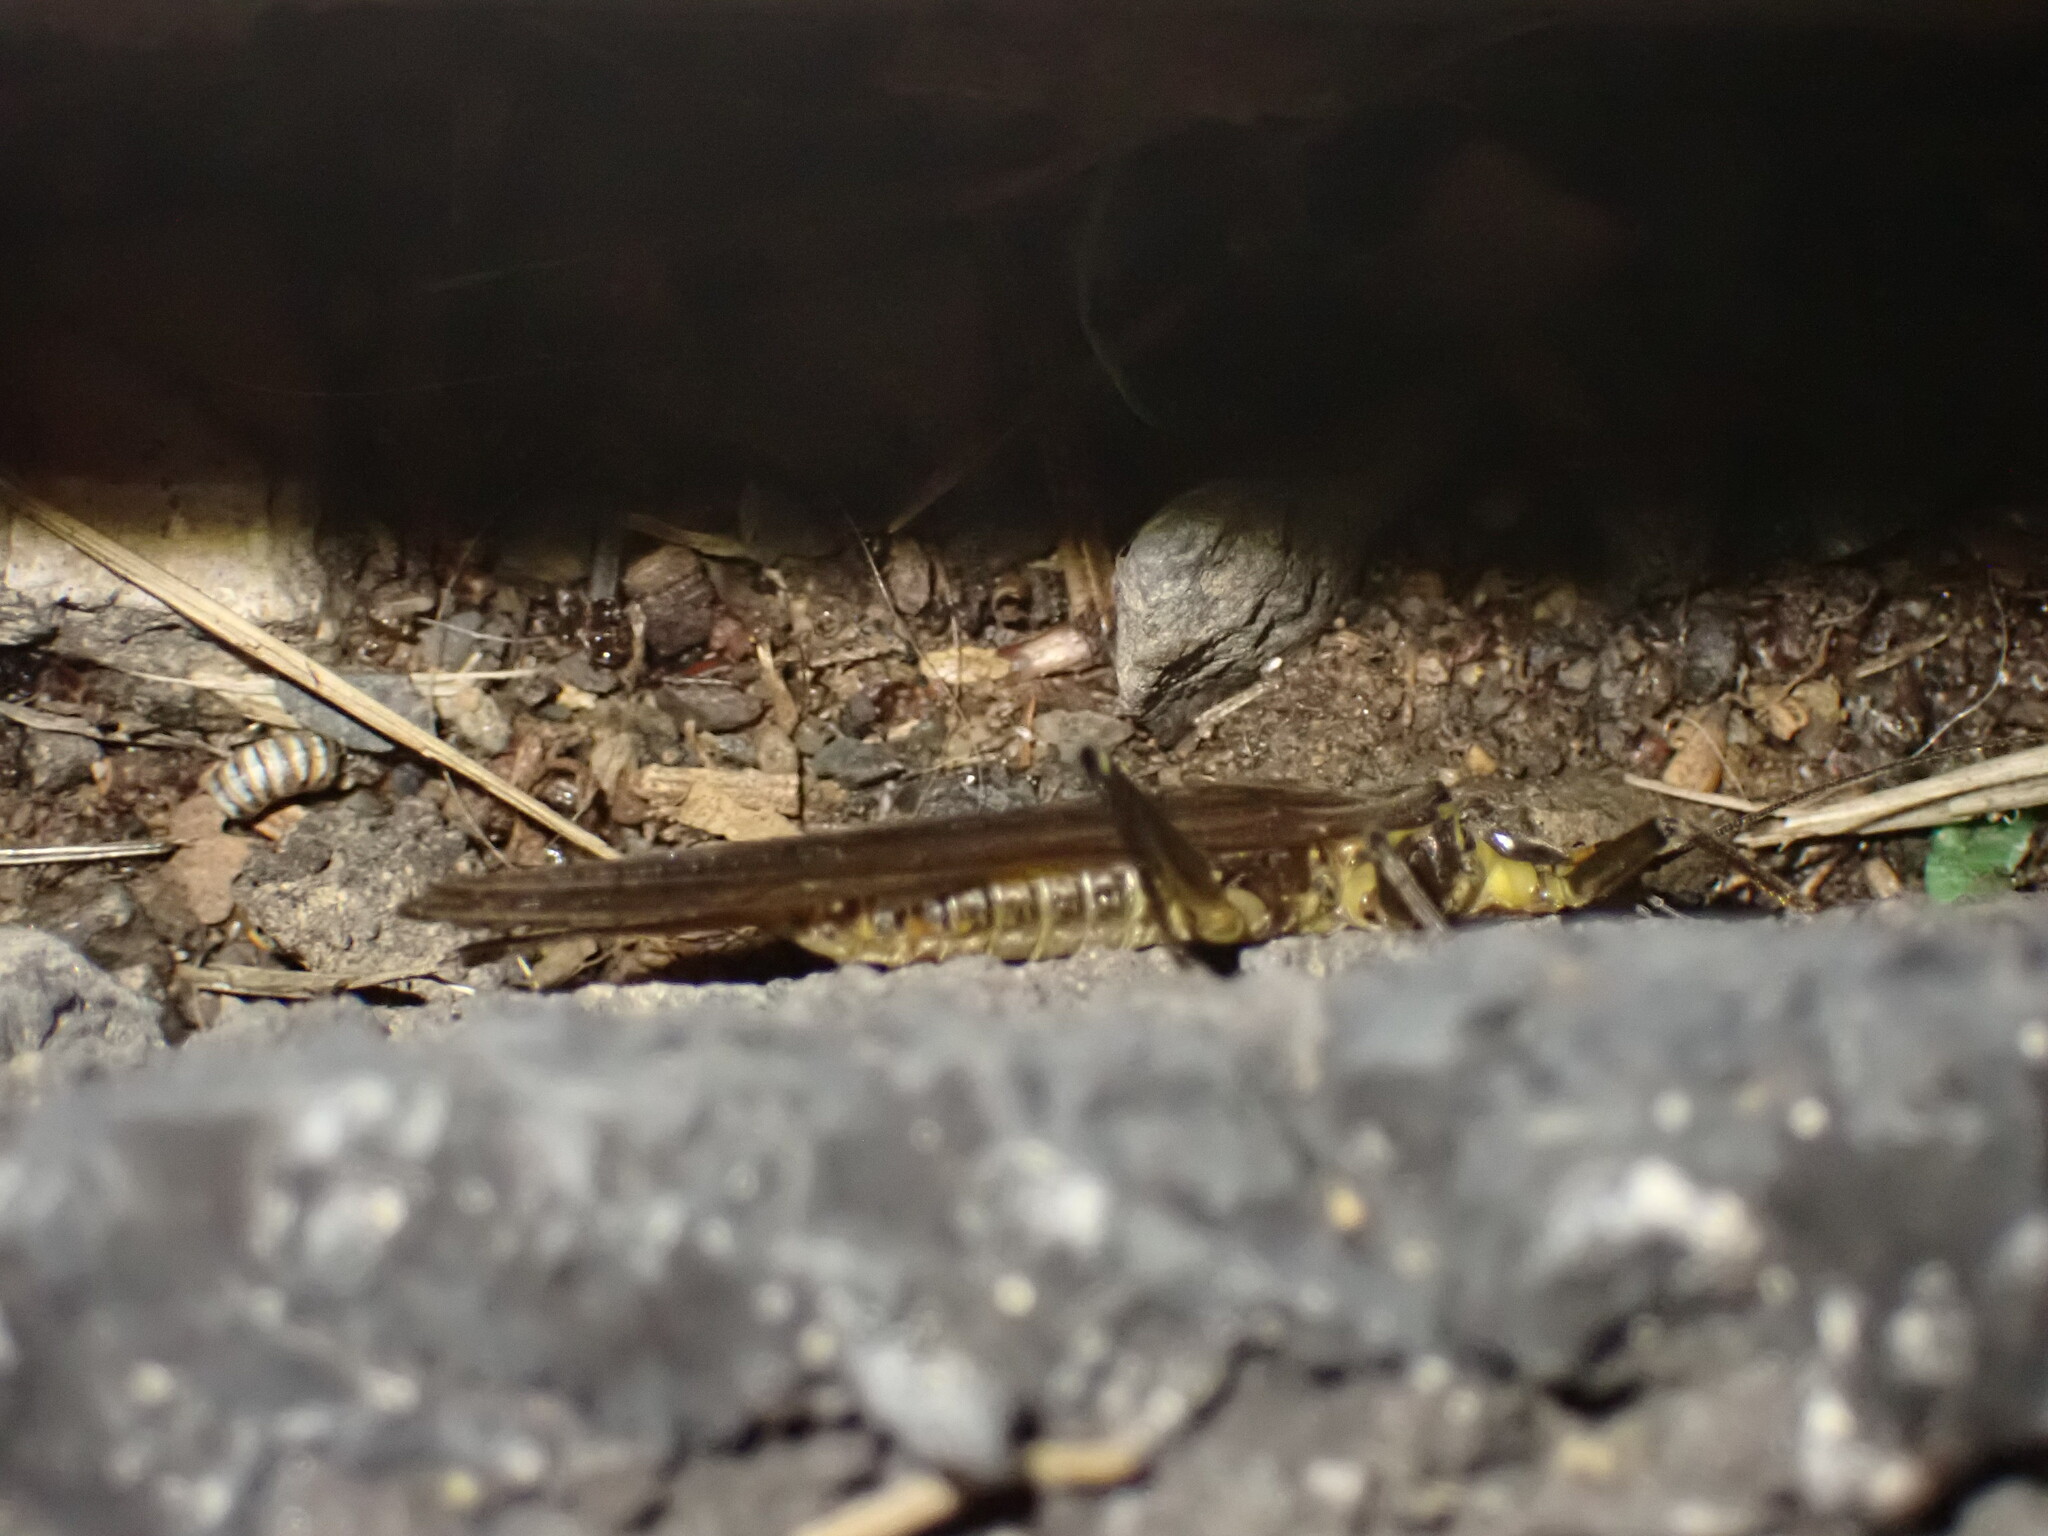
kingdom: Animalia
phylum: Arthropoda
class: Insecta
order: Plecoptera
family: Perlidae
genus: Acroneuria
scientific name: Acroneuria
